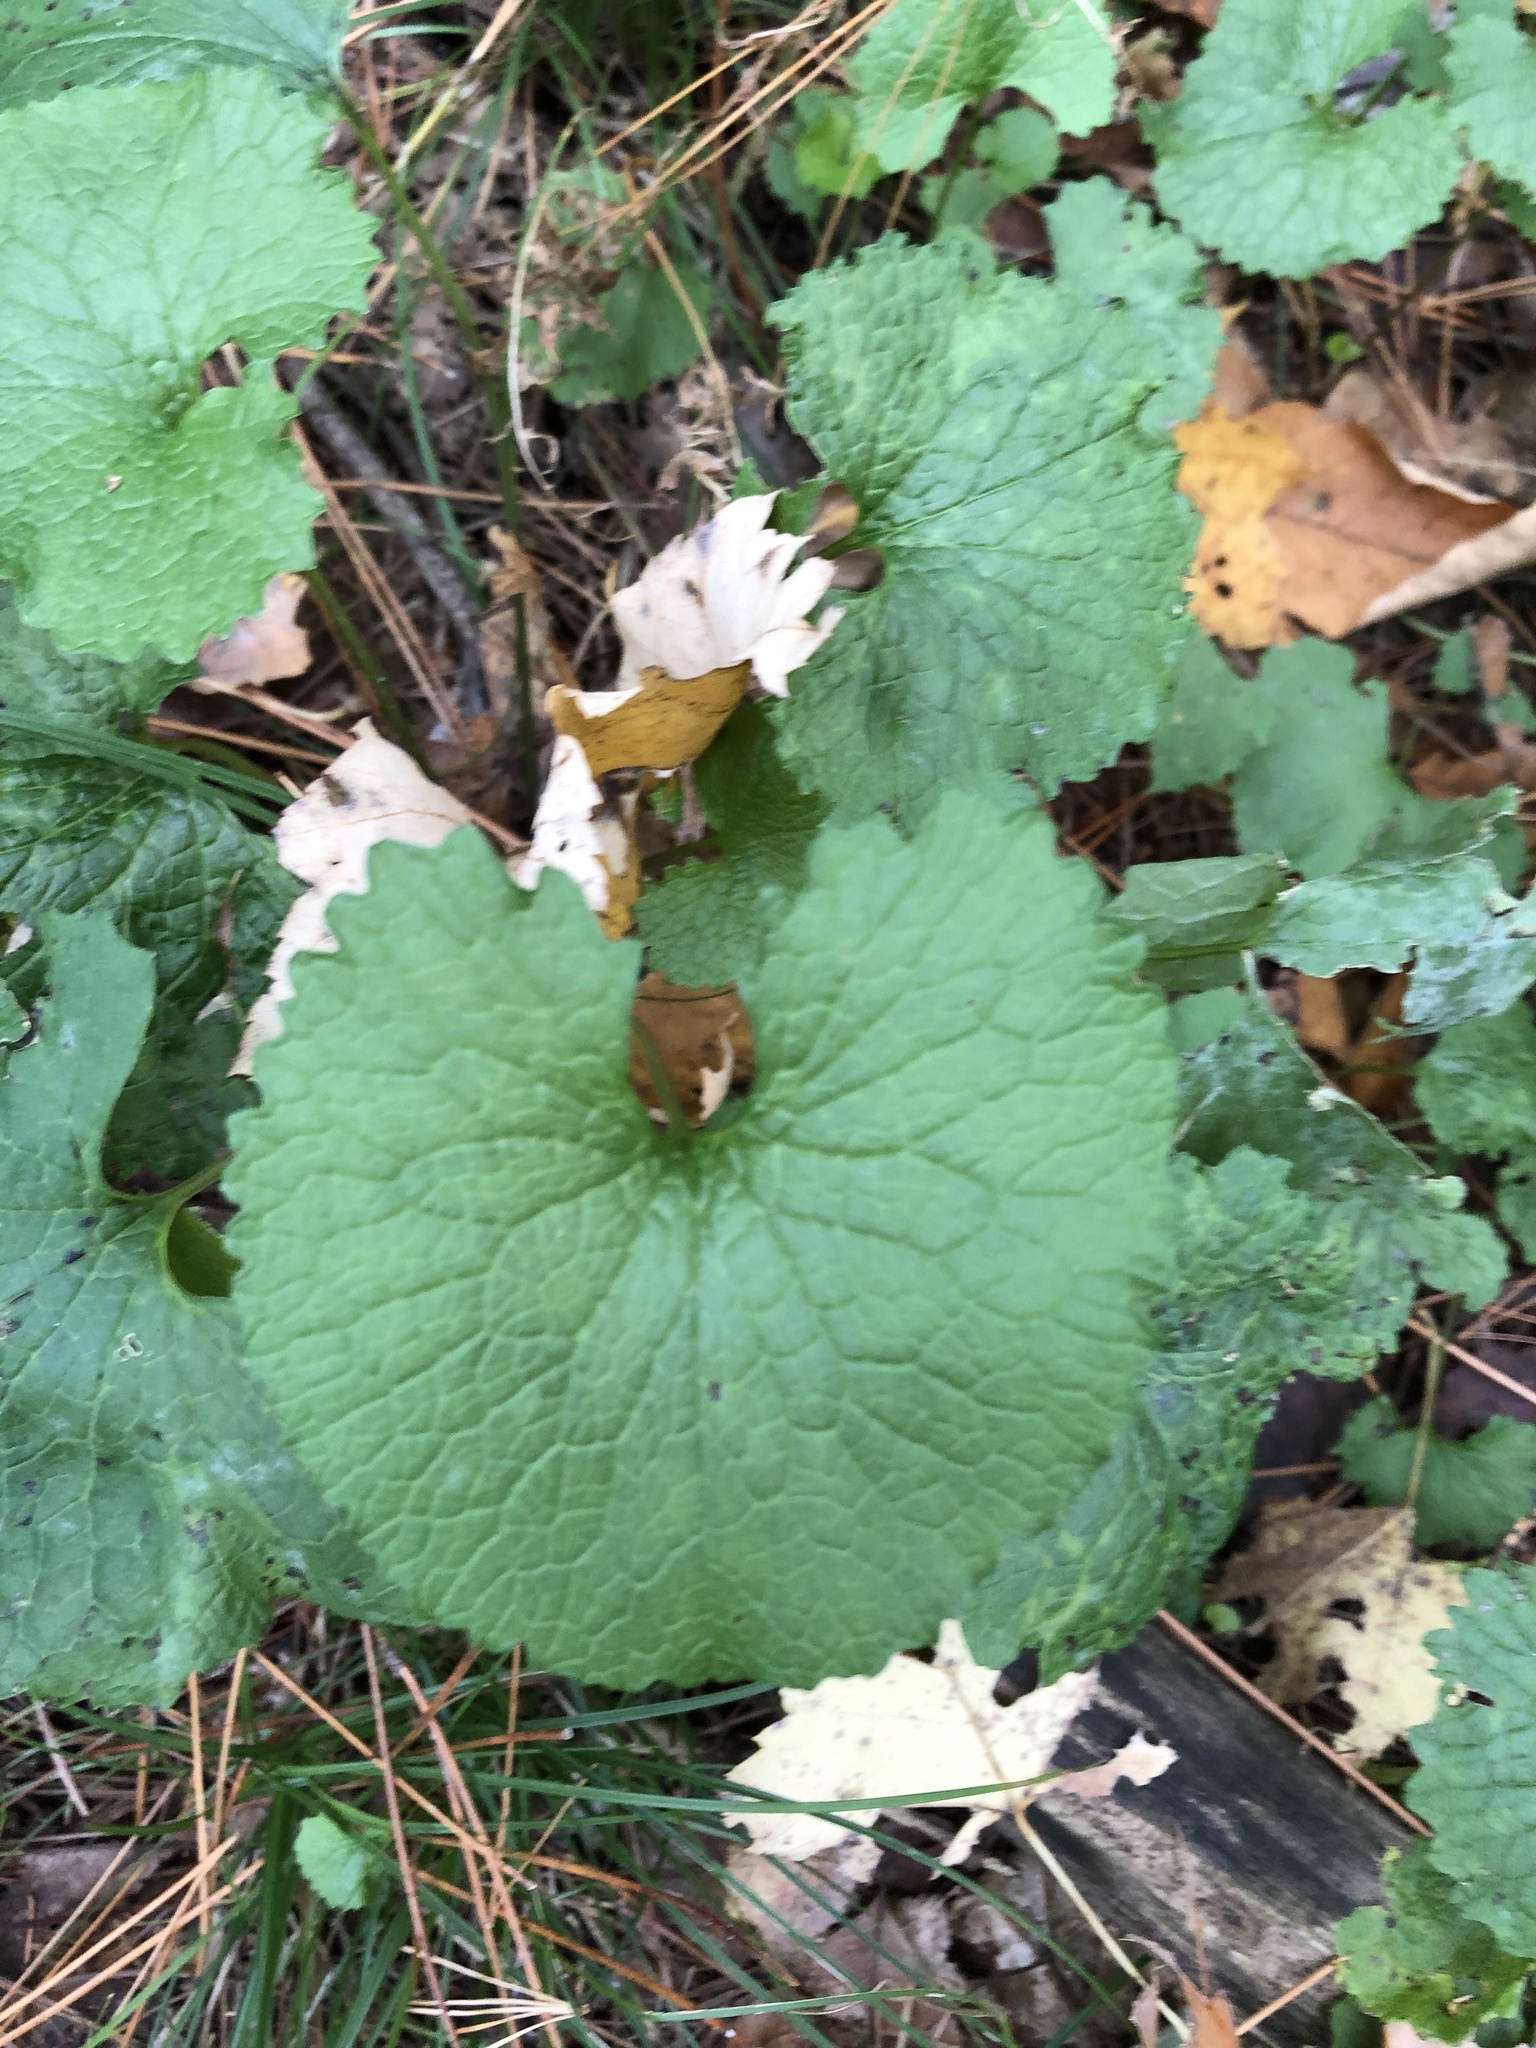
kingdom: Plantae
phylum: Tracheophyta
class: Magnoliopsida
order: Brassicales
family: Brassicaceae
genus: Alliaria
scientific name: Alliaria petiolata
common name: Garlic mustard
